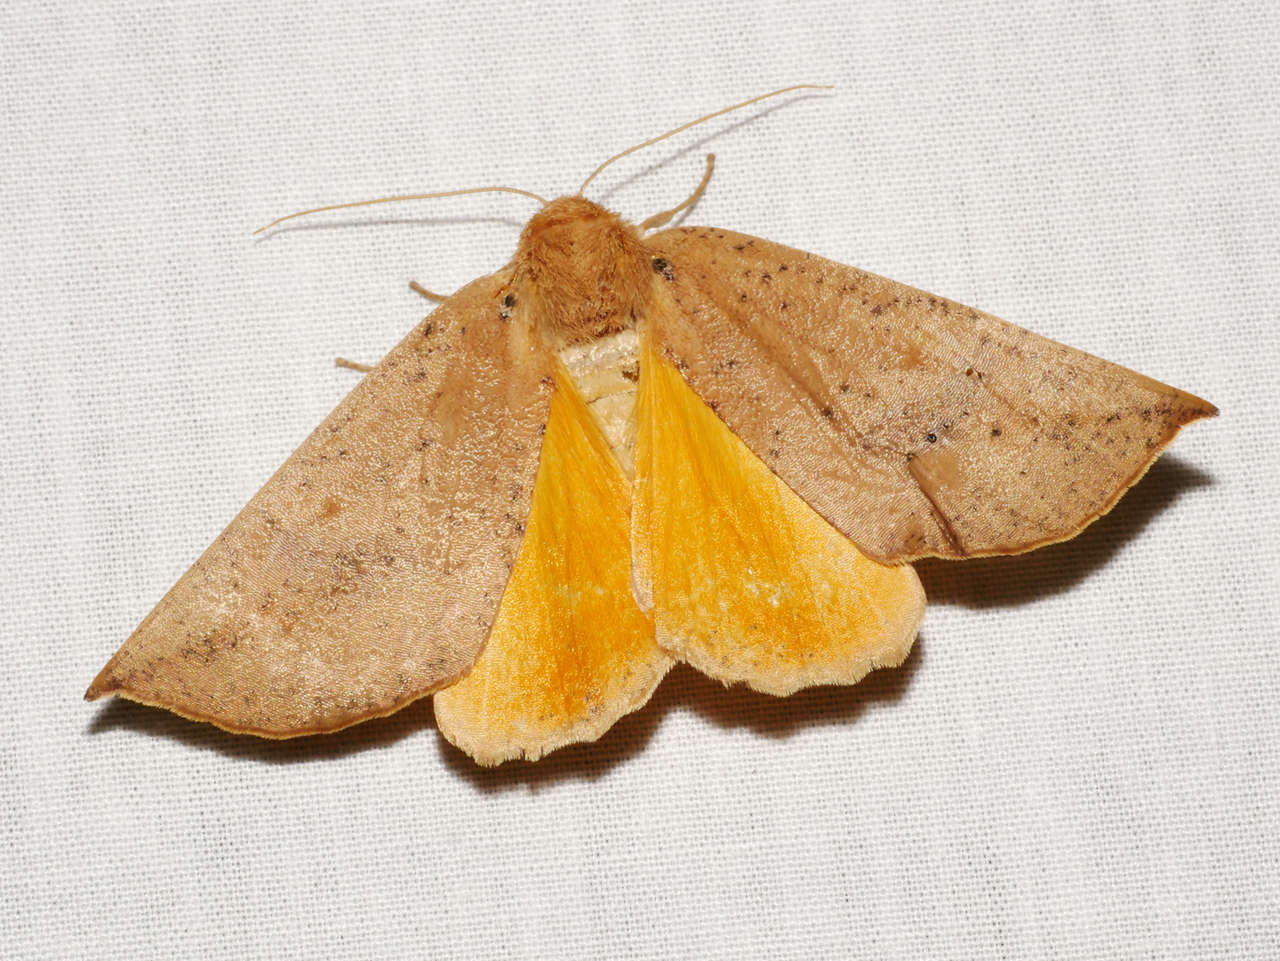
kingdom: Animalia
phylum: Arthropoda
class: Insecta
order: Lepidoptera
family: Geometridae
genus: Mnesampela
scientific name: Mnesampela heliochrysa
